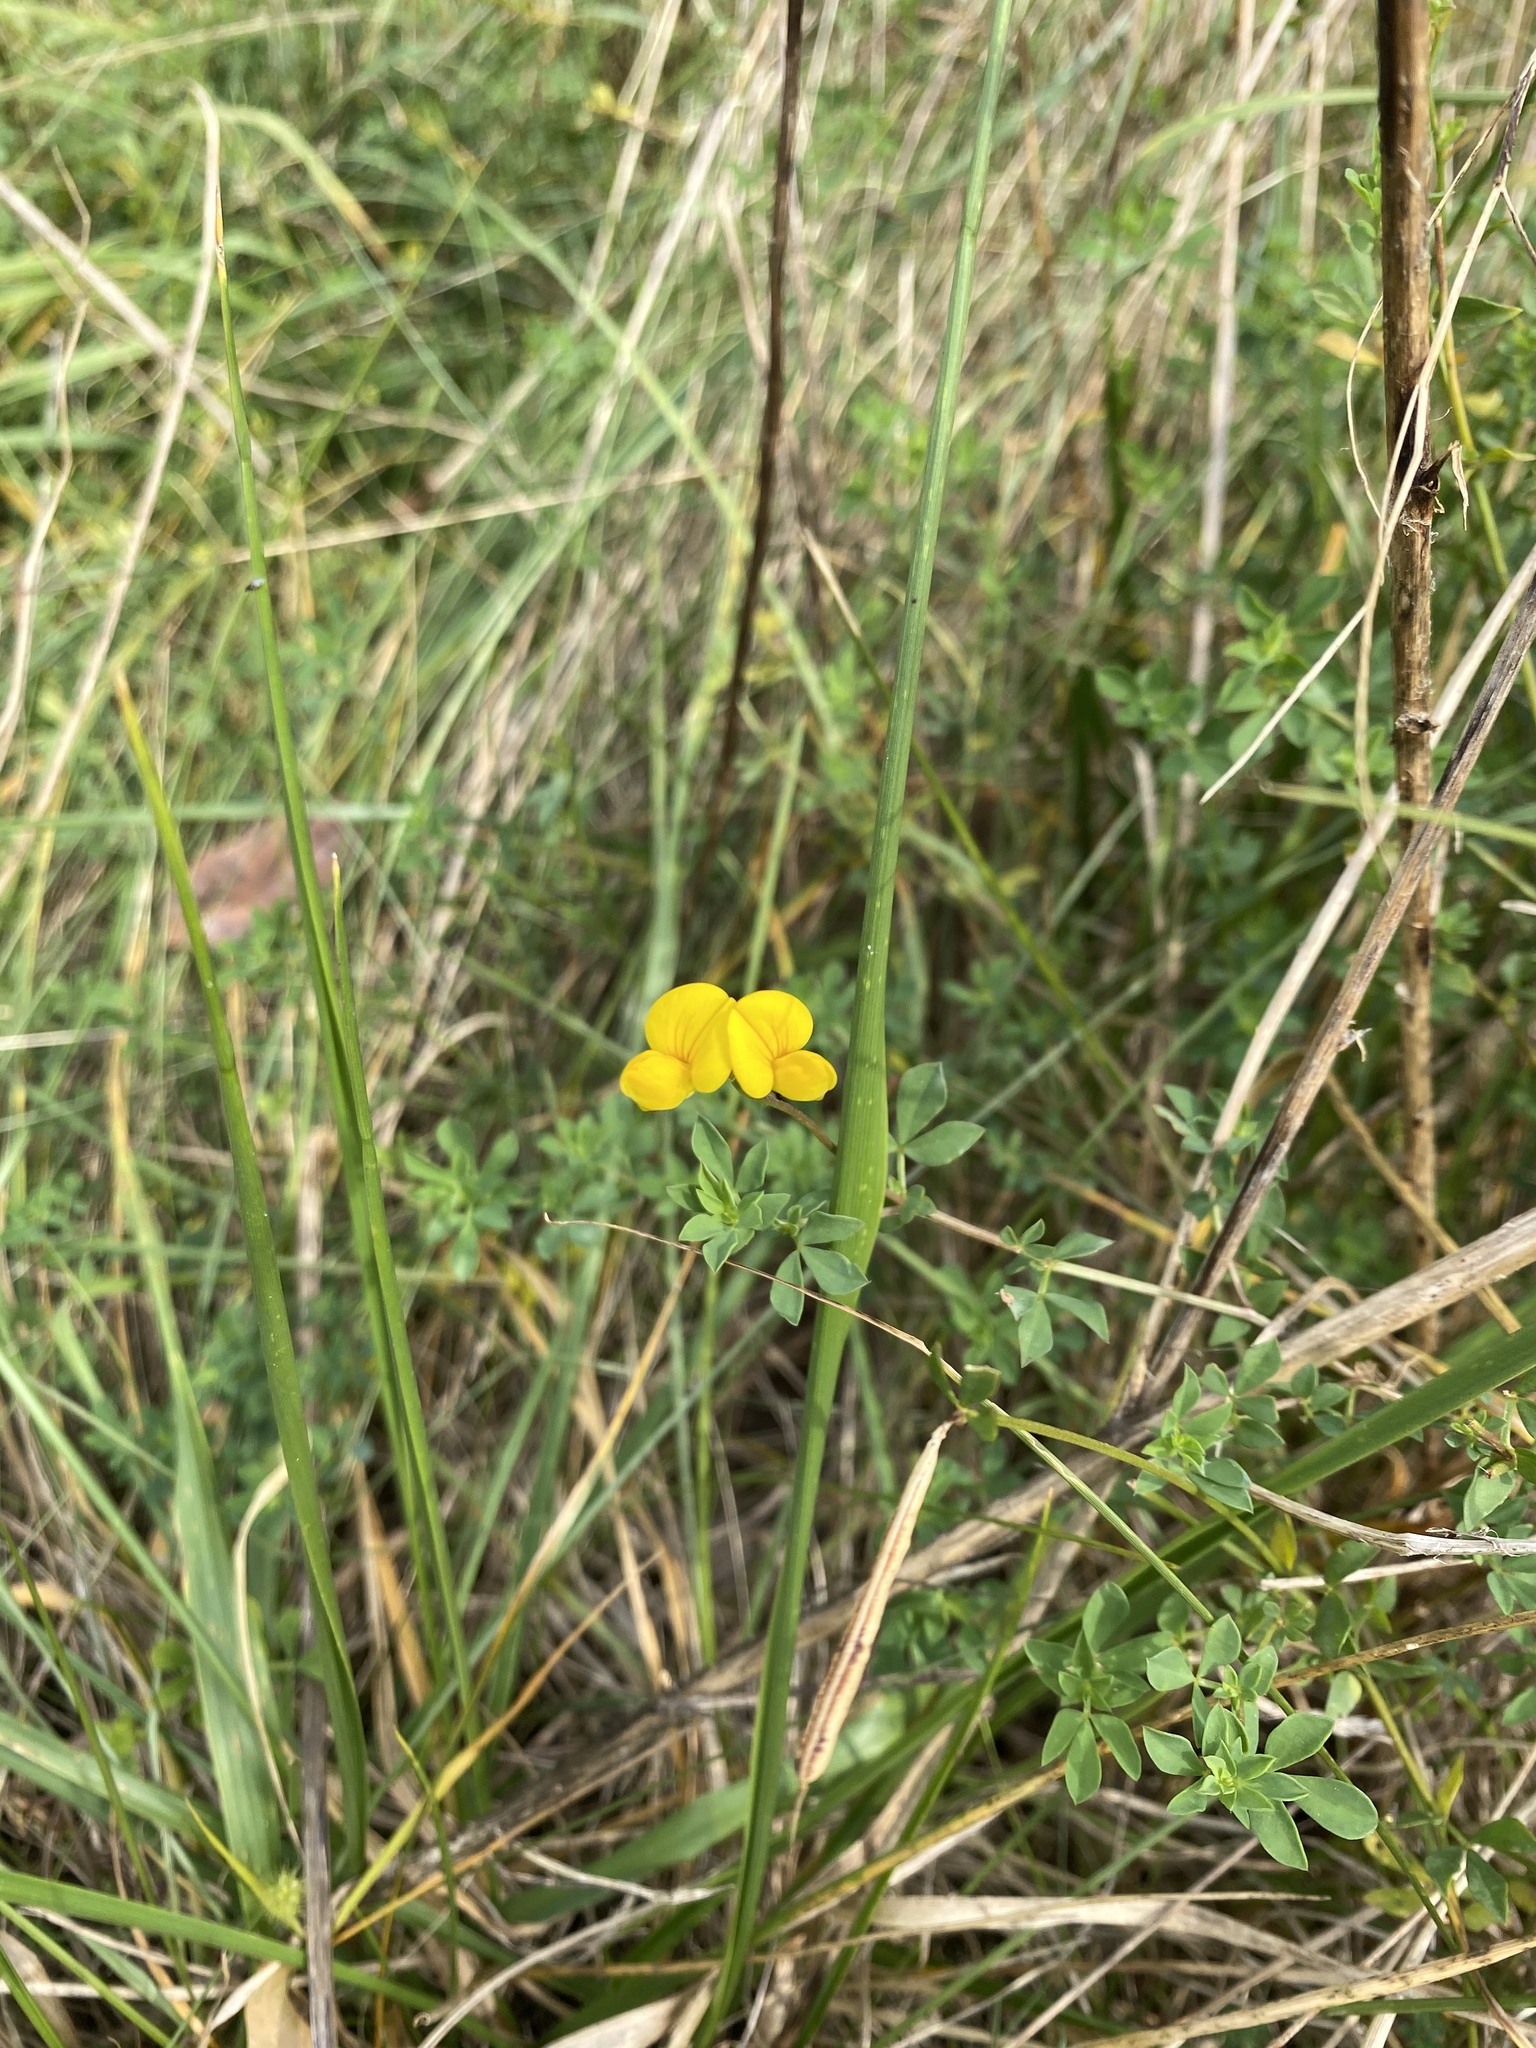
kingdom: Plantae
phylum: Tracheophyta
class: Magnoliopsida
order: Fabales
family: Fabaceae
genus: Lotus
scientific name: Lotus corniculatus
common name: Common bird's-foot-trefoil
